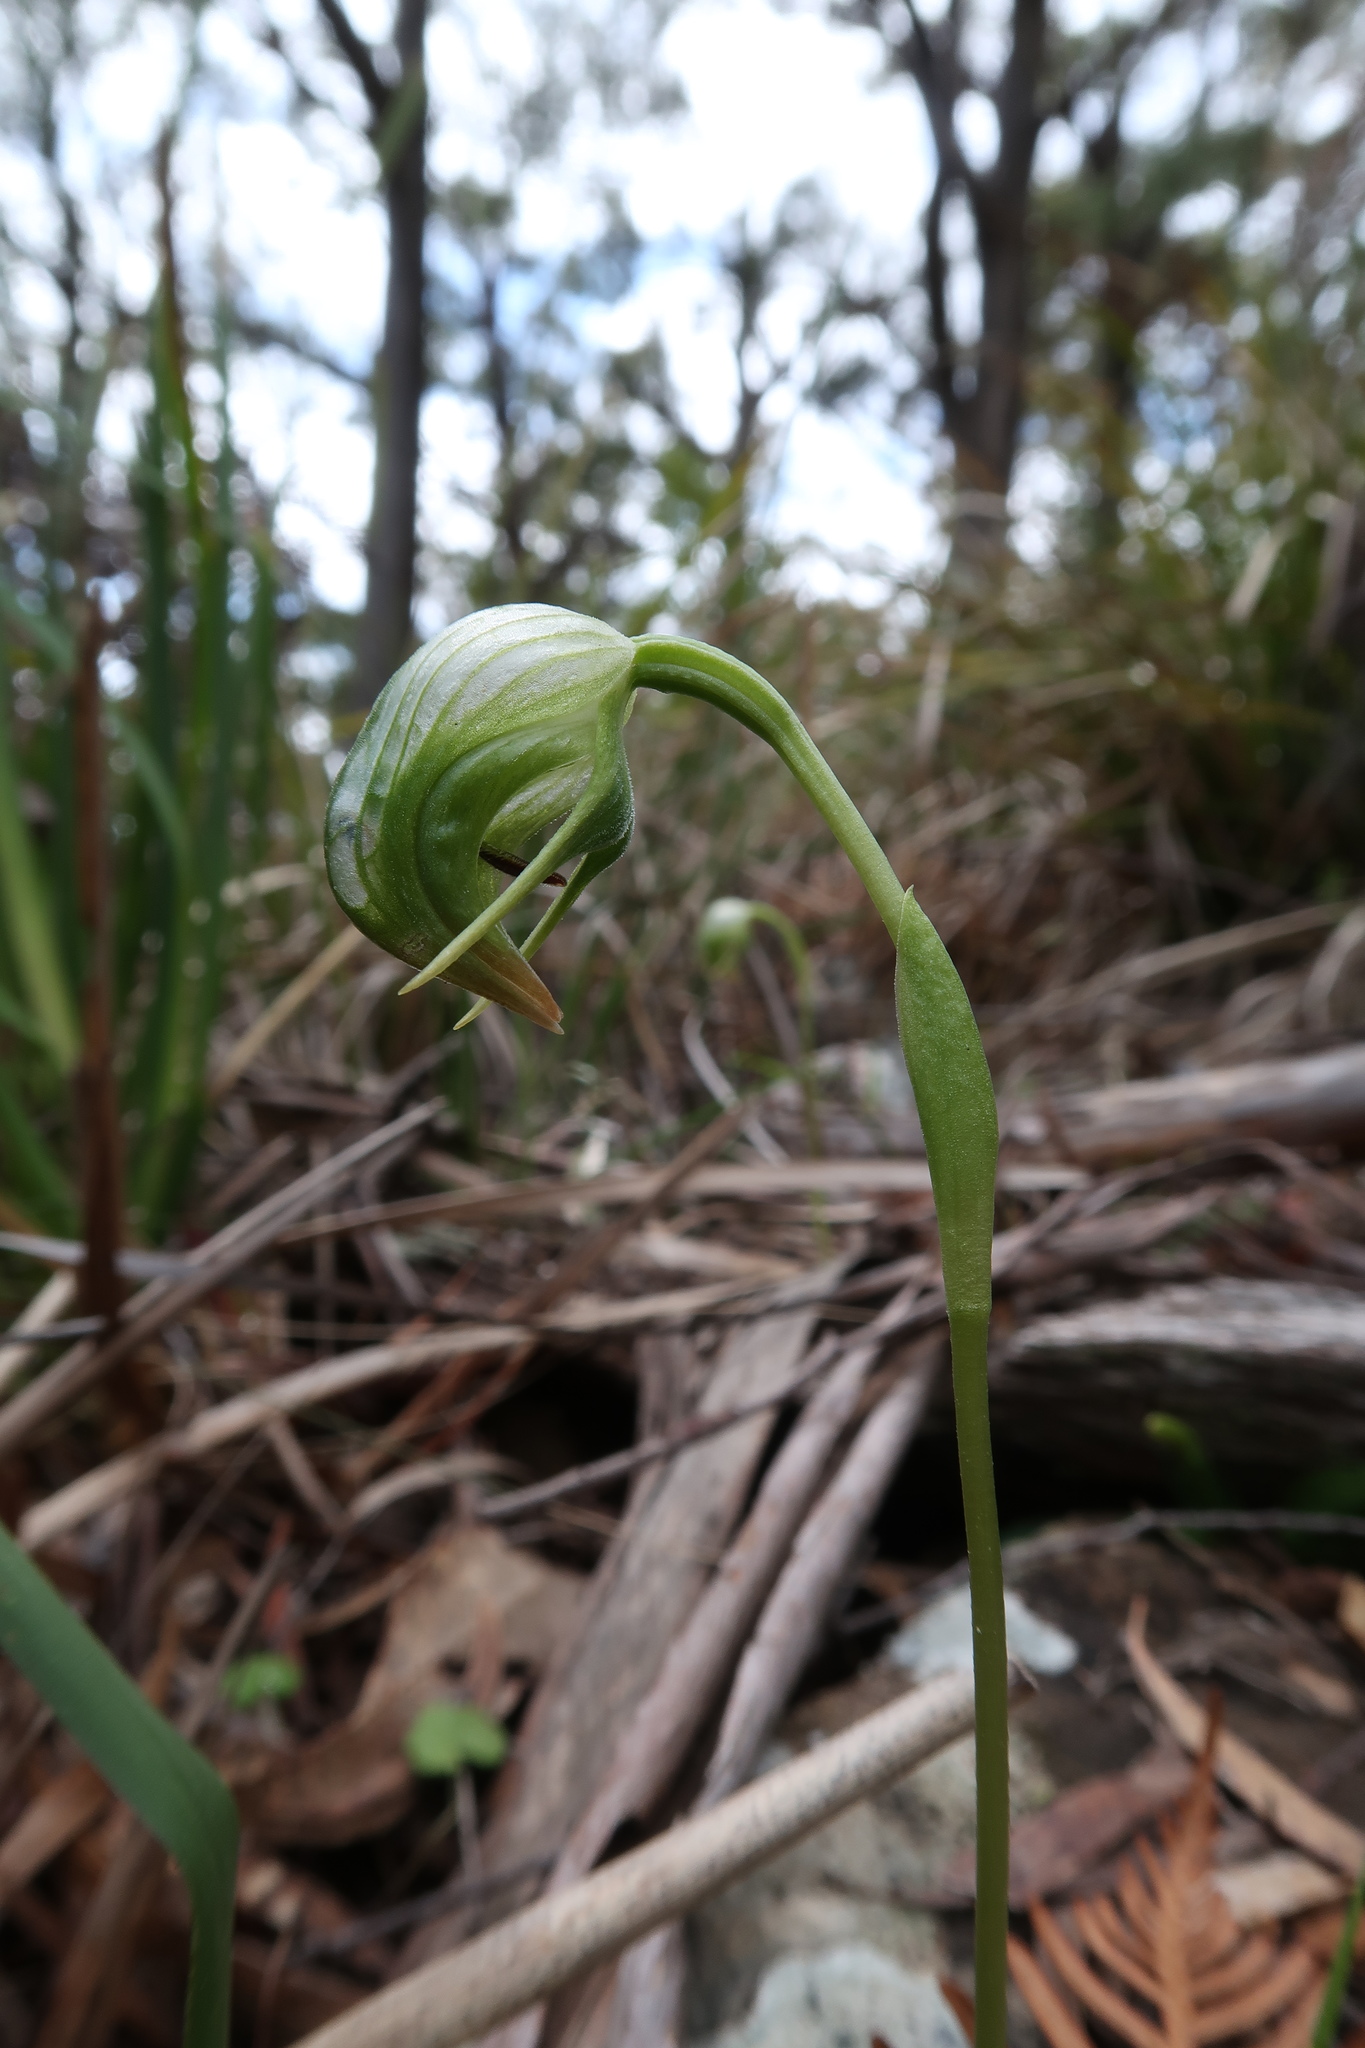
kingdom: Plantae
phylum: Tracheophyta
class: Liliopsida
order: Asparagales
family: Orchidaceae
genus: Pterostylis
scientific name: Pterostylis nutans
